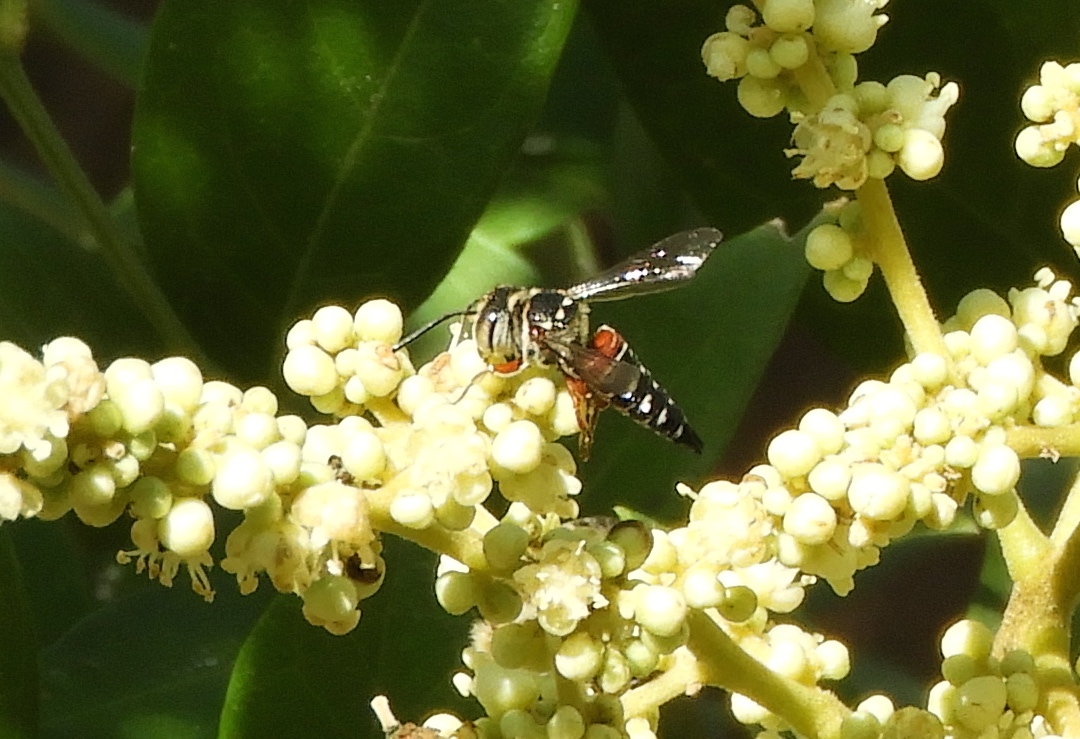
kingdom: Animalia
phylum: Arthropoda
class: Insecta
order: Hymenoptera
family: Megachilidae
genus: Coelioxys
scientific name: Coelioxys
